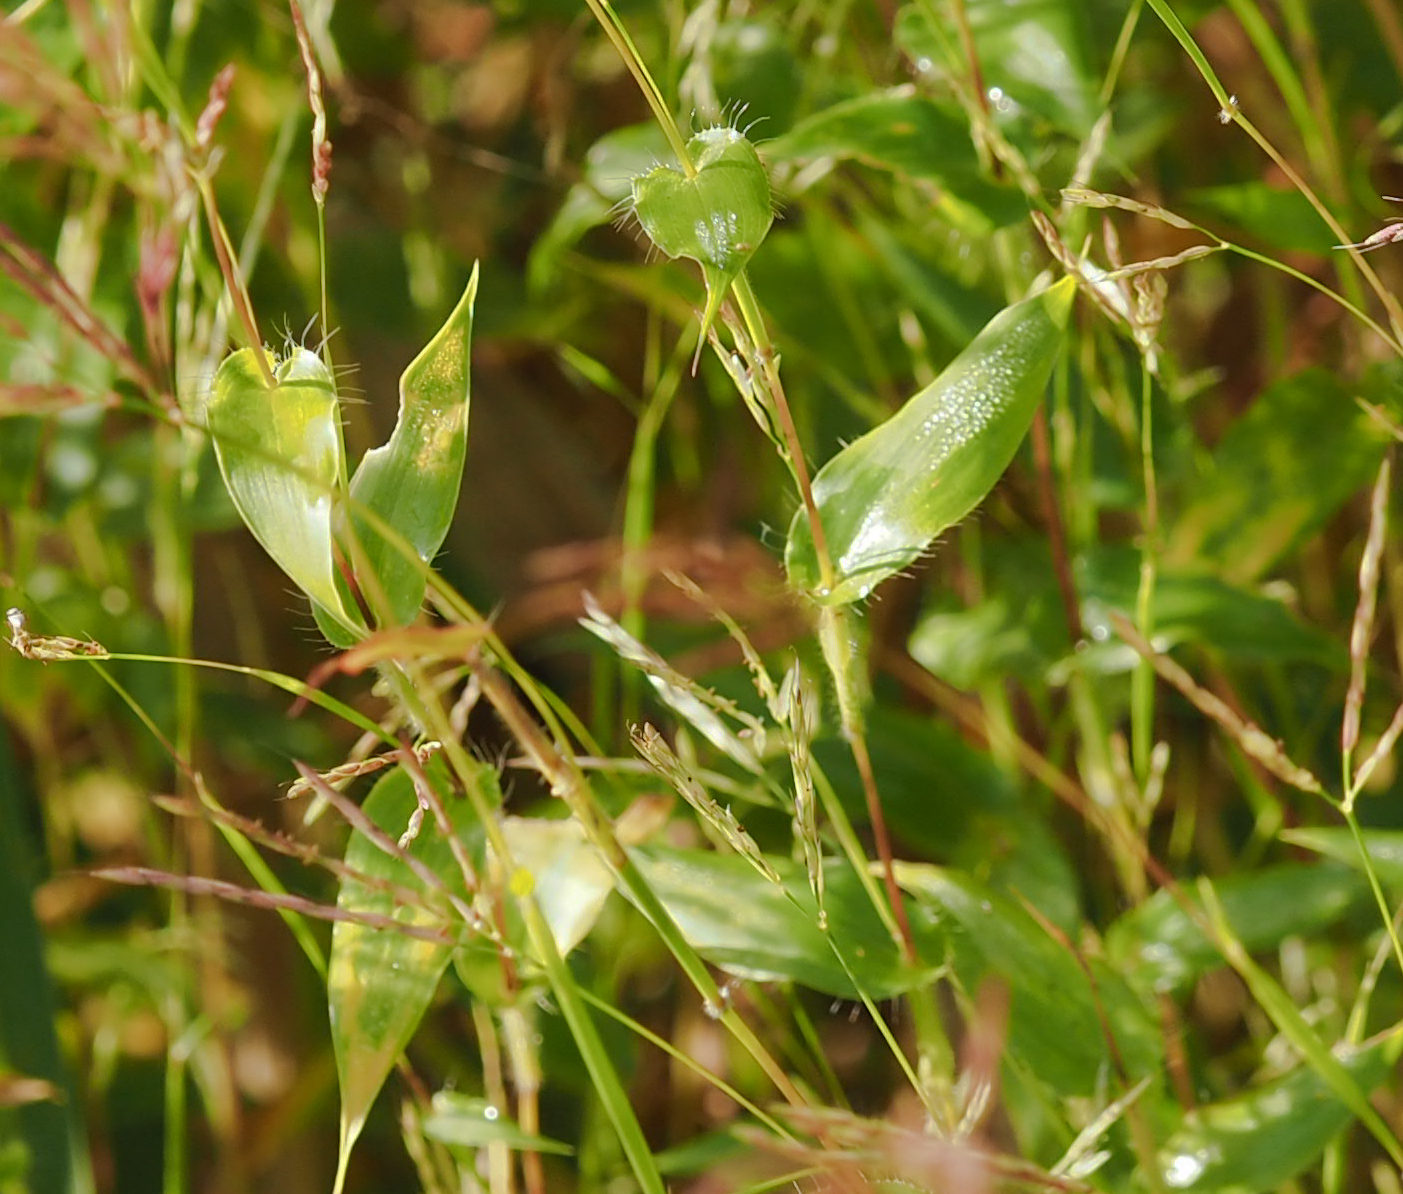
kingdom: Plantae
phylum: Tracheophyta
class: Liliopsida
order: Poales
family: Poaceae
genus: Arthraxon
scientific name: Arthraxon hispidus
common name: Small carpgrass
